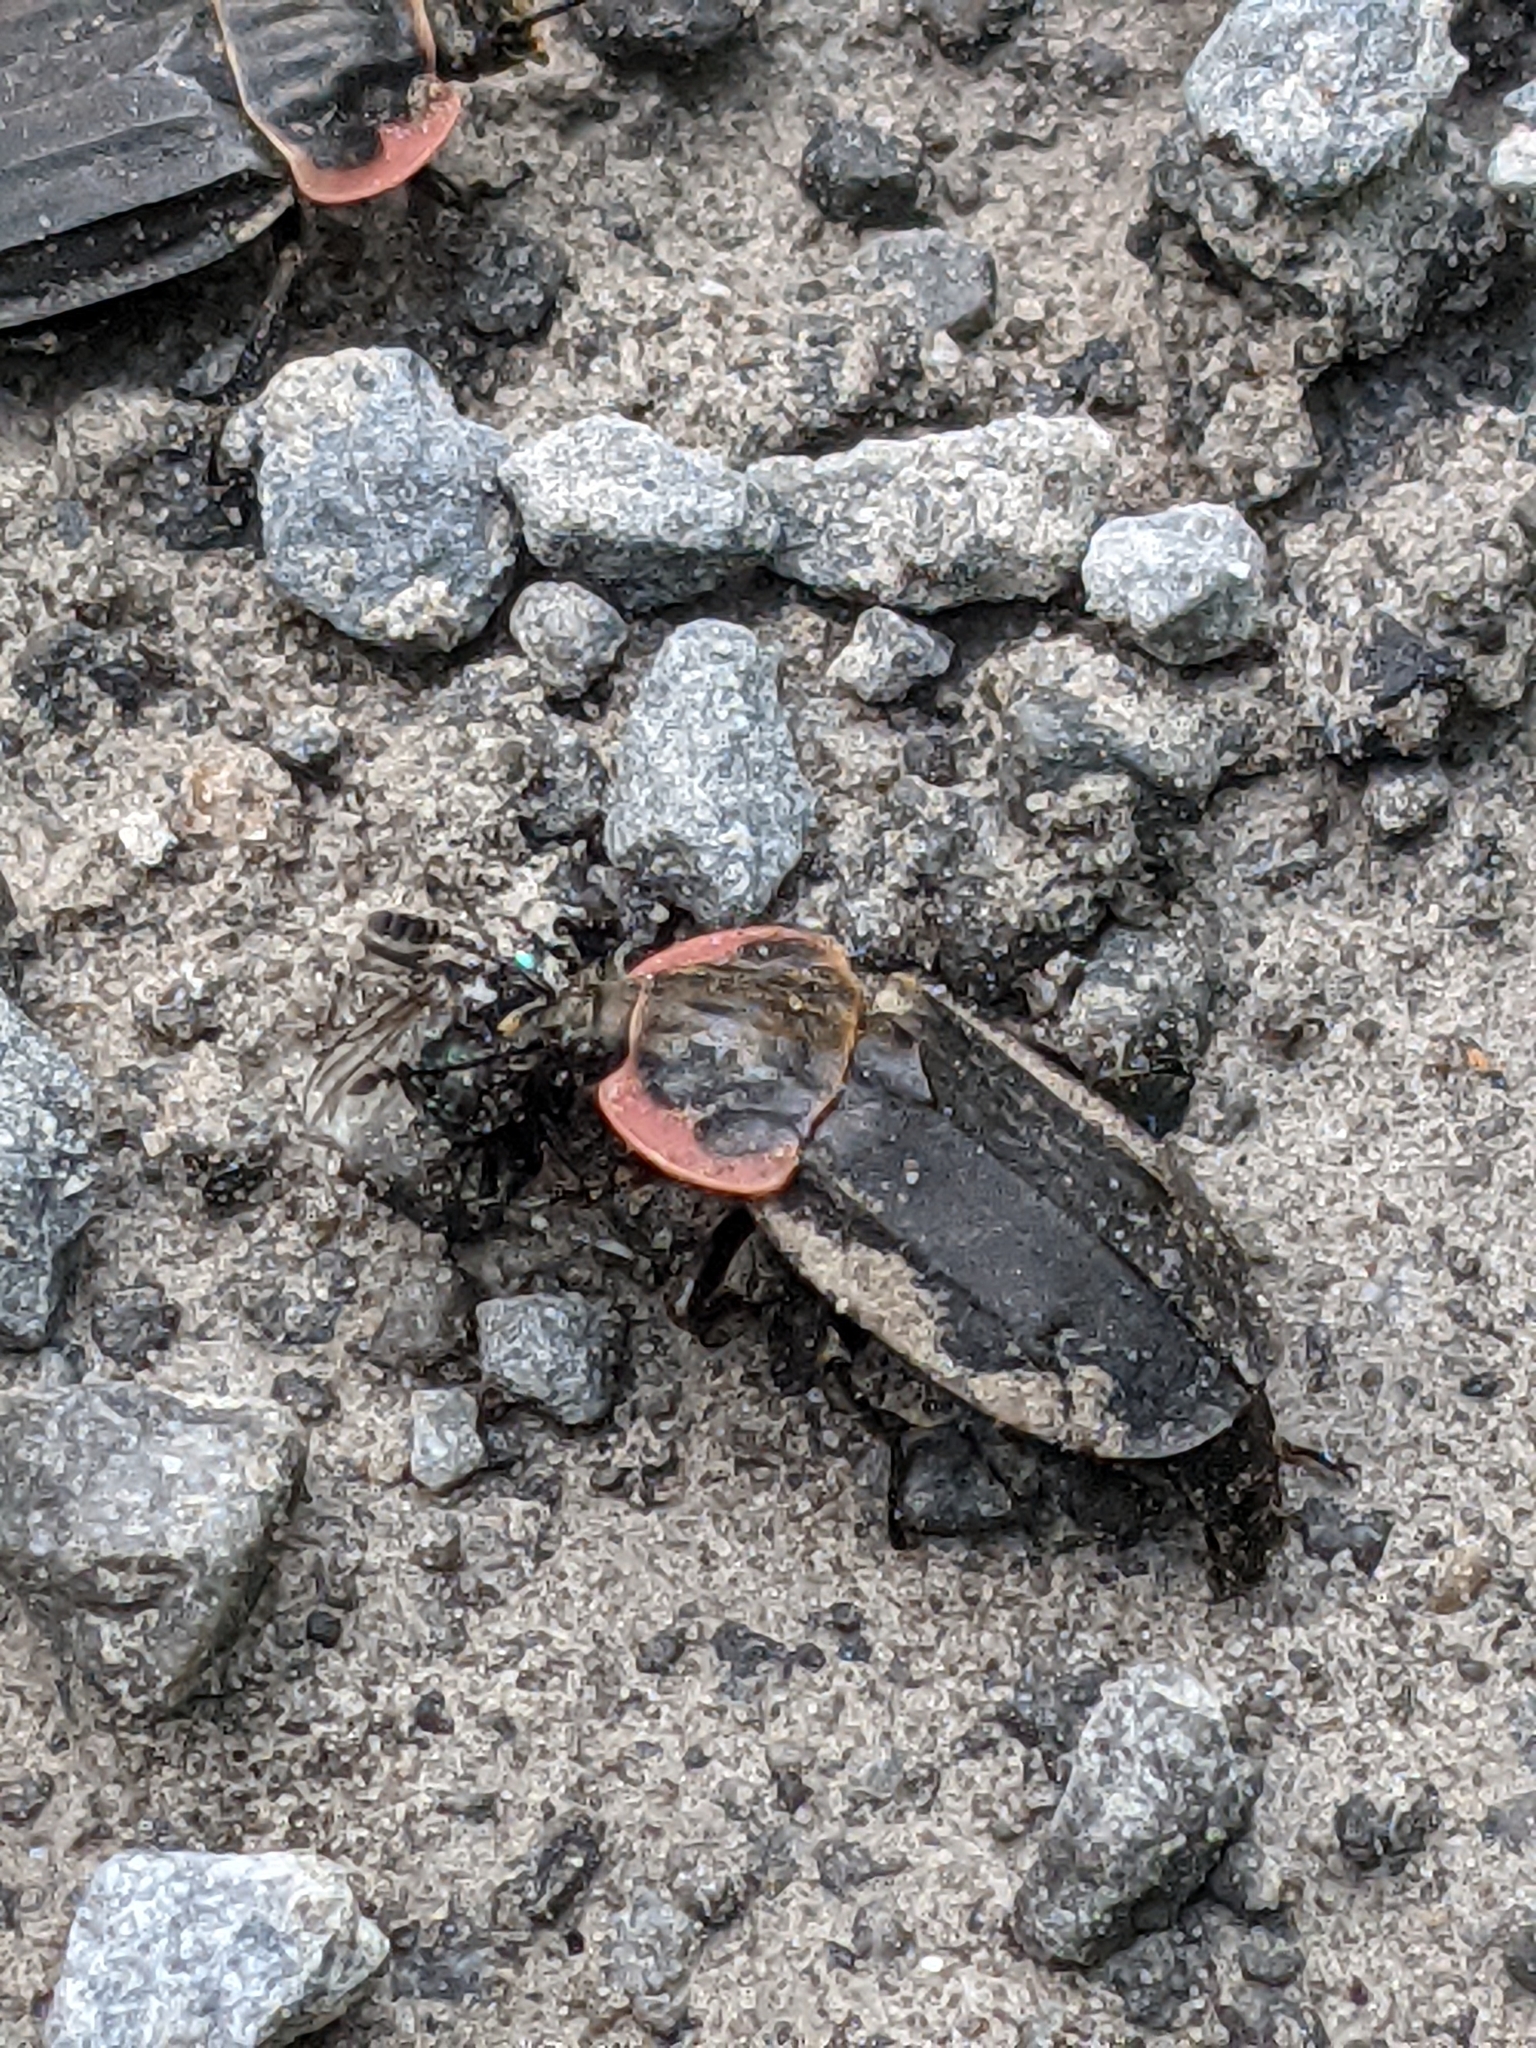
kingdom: Animalia
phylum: Arthropoda
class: Insecta
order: Coleoptera
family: Staphylinidae
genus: Oiceoptoma
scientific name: Oiceoptoma noveboracense
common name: Margined carrion beetle
